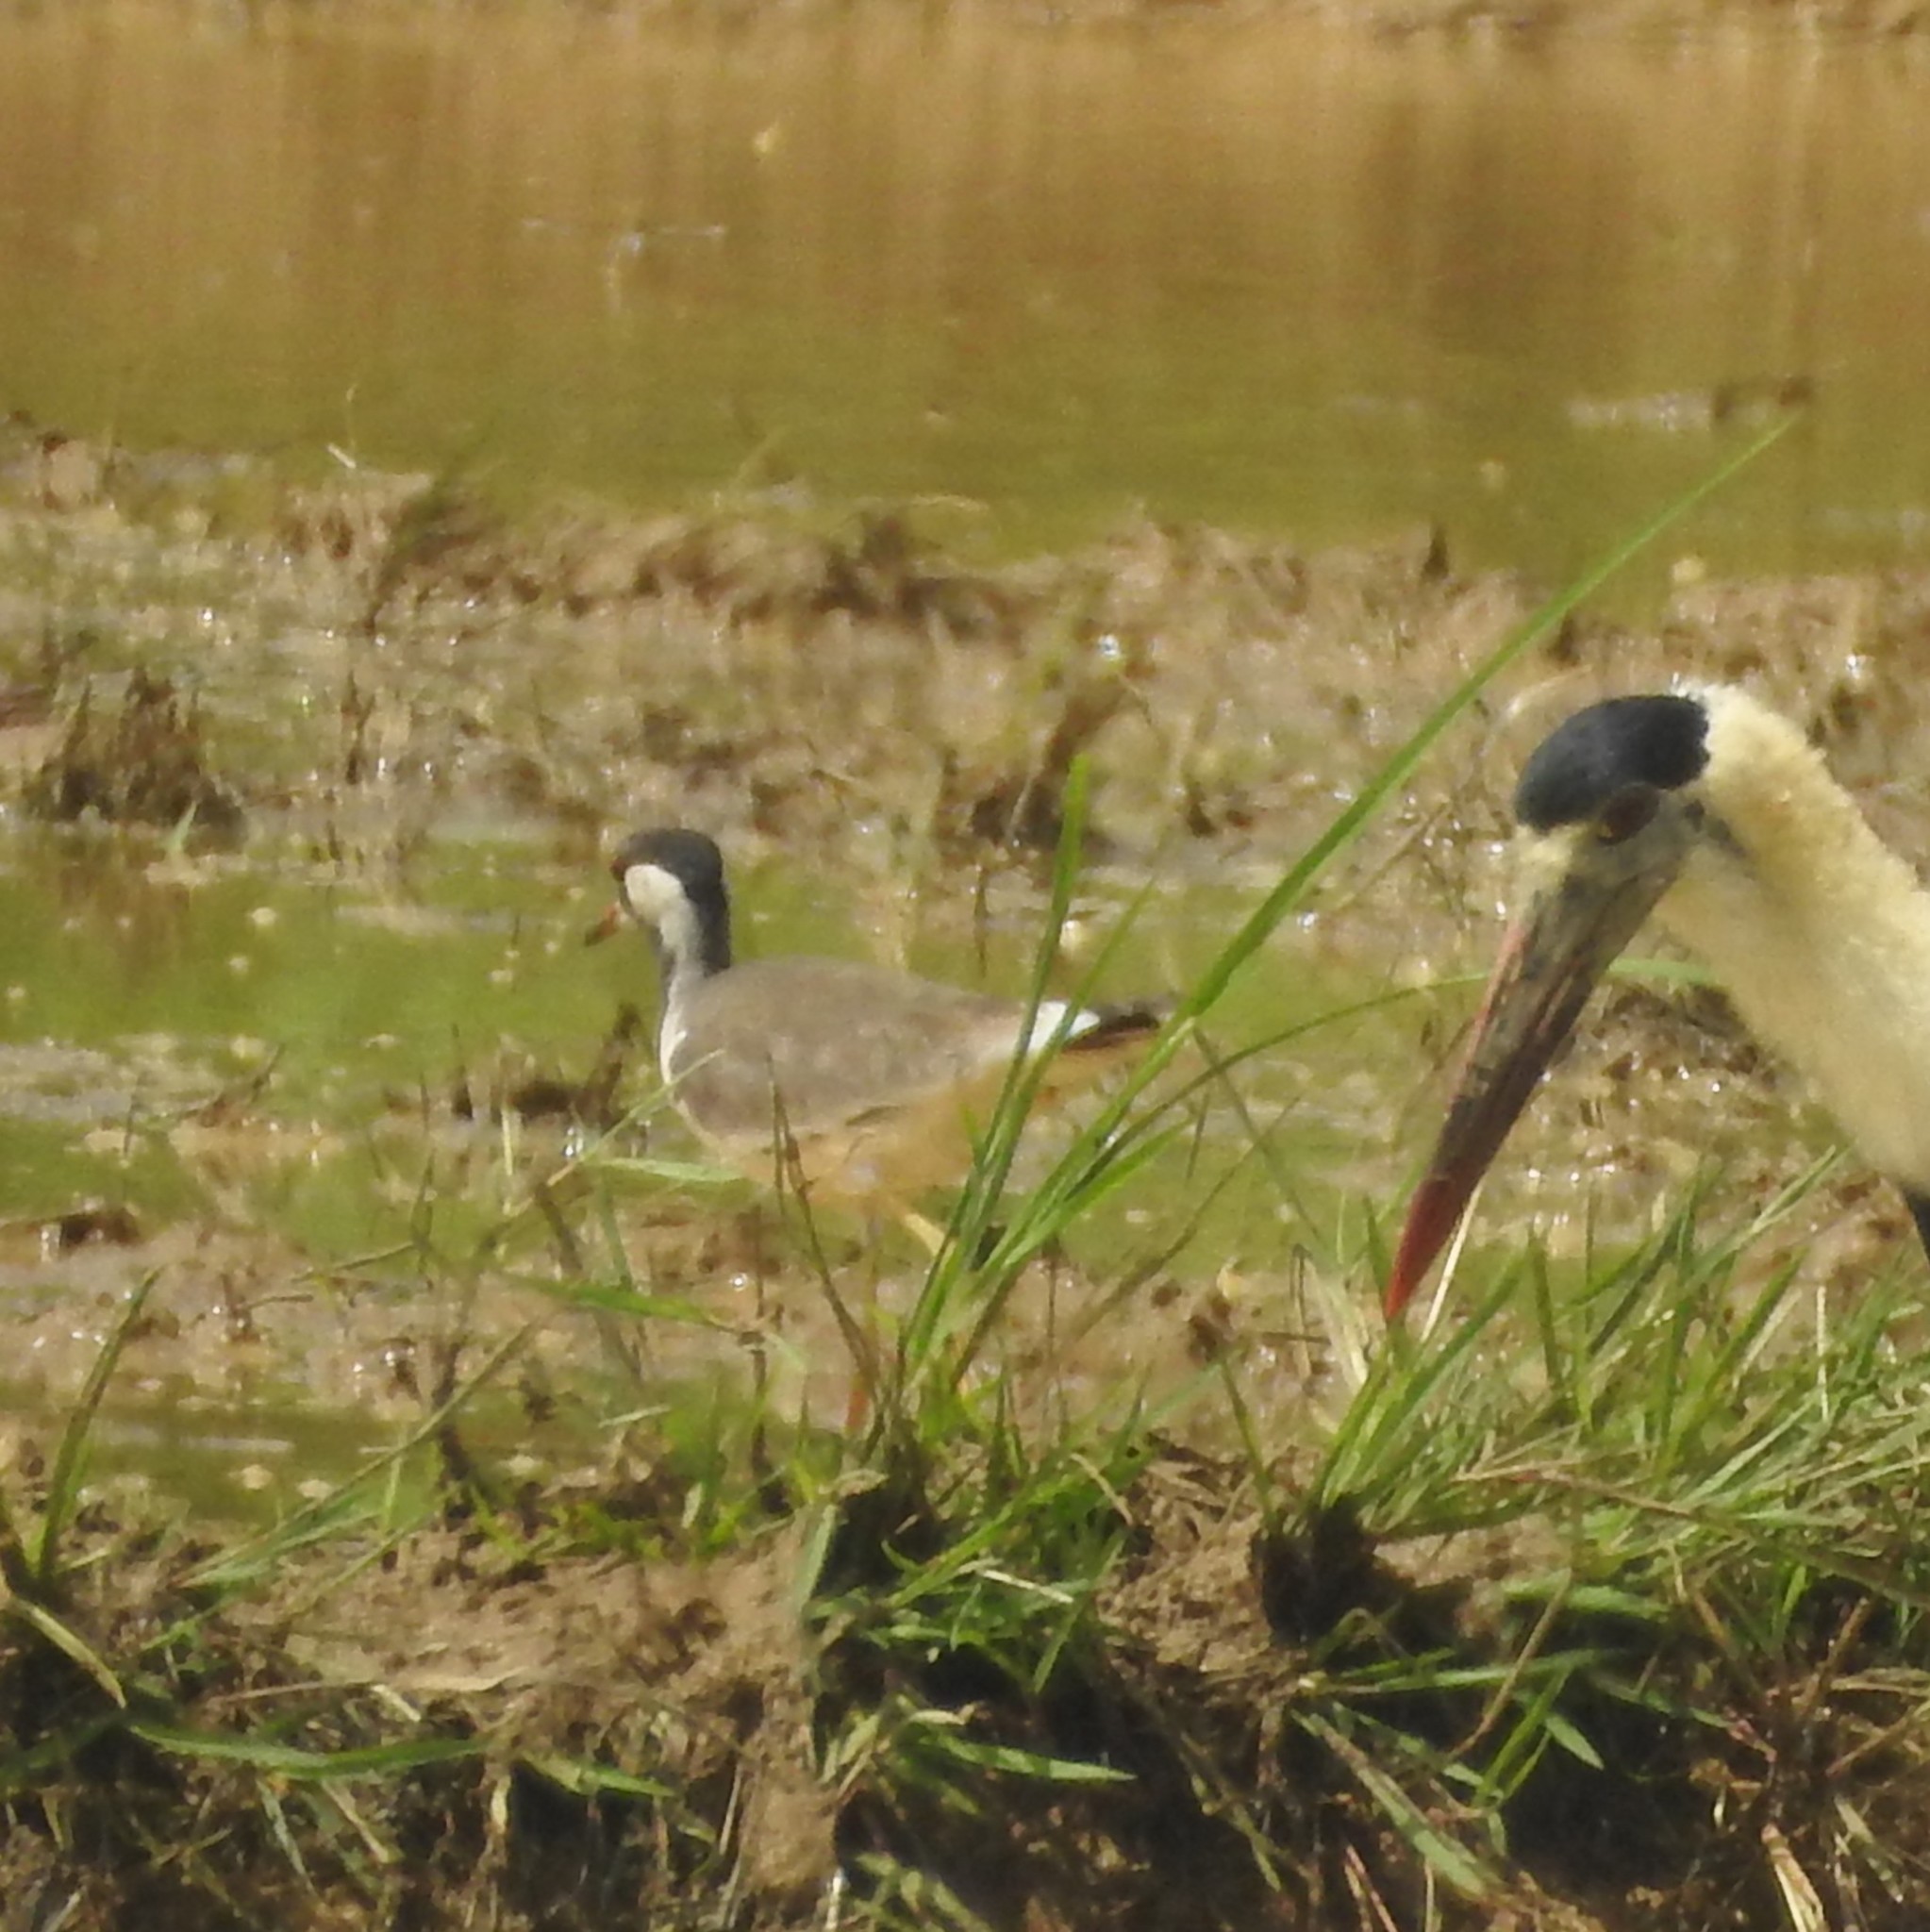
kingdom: Animalia
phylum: Chordata
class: Aves
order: Ciconiiformes
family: Ciconiidae
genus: Ciconia
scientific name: Ciconia episcopus
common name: Woolly-necked stork
